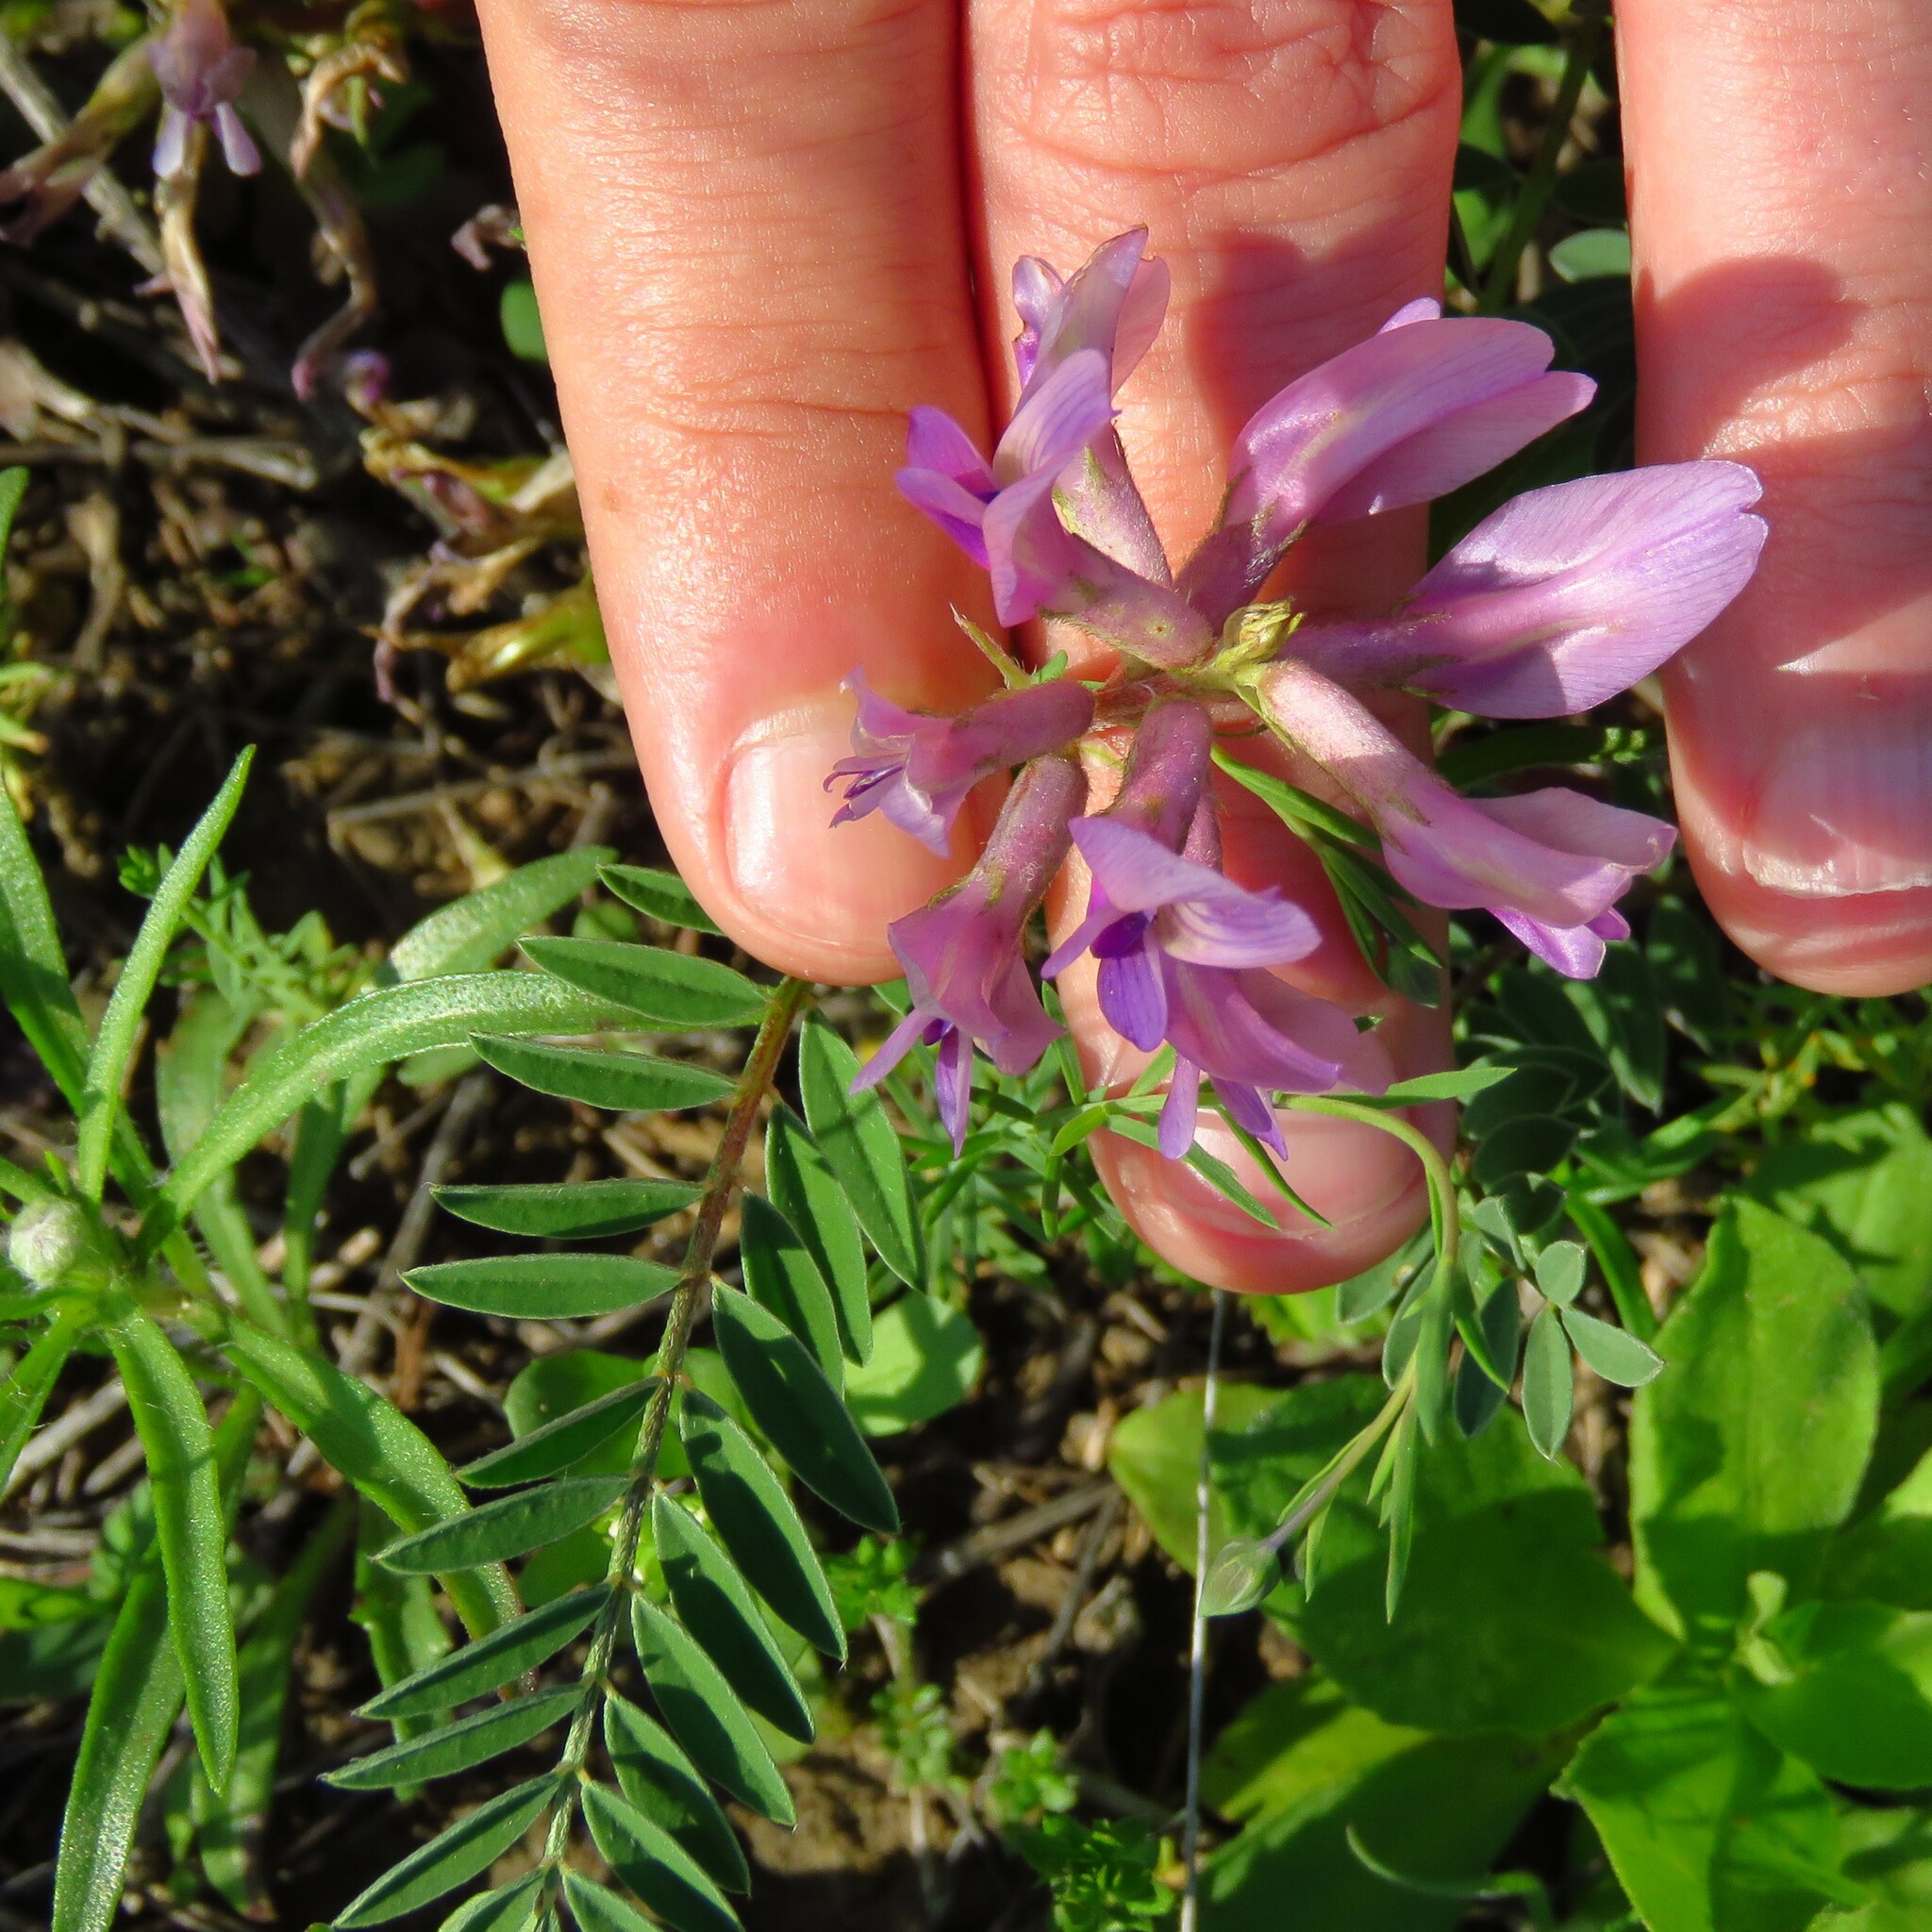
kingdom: Plantae
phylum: Tracheophyta
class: Magnoliopsida
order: Fabales
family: Fabaceae
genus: Astragalus
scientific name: Astragalus crassicarpus
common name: Ground-plum milk-vetch
